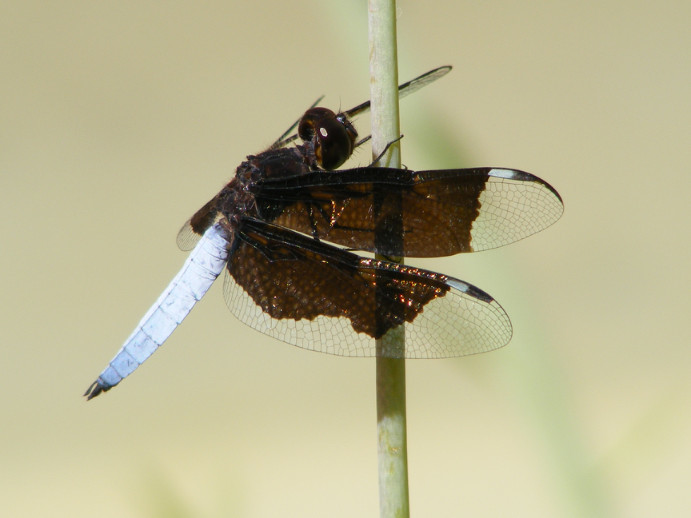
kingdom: Animalia
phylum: Arthropoda
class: Insecta
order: Odonata
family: Libellulidae
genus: Palpopleura
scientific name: Palpopleura lucia
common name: Lucia widow
